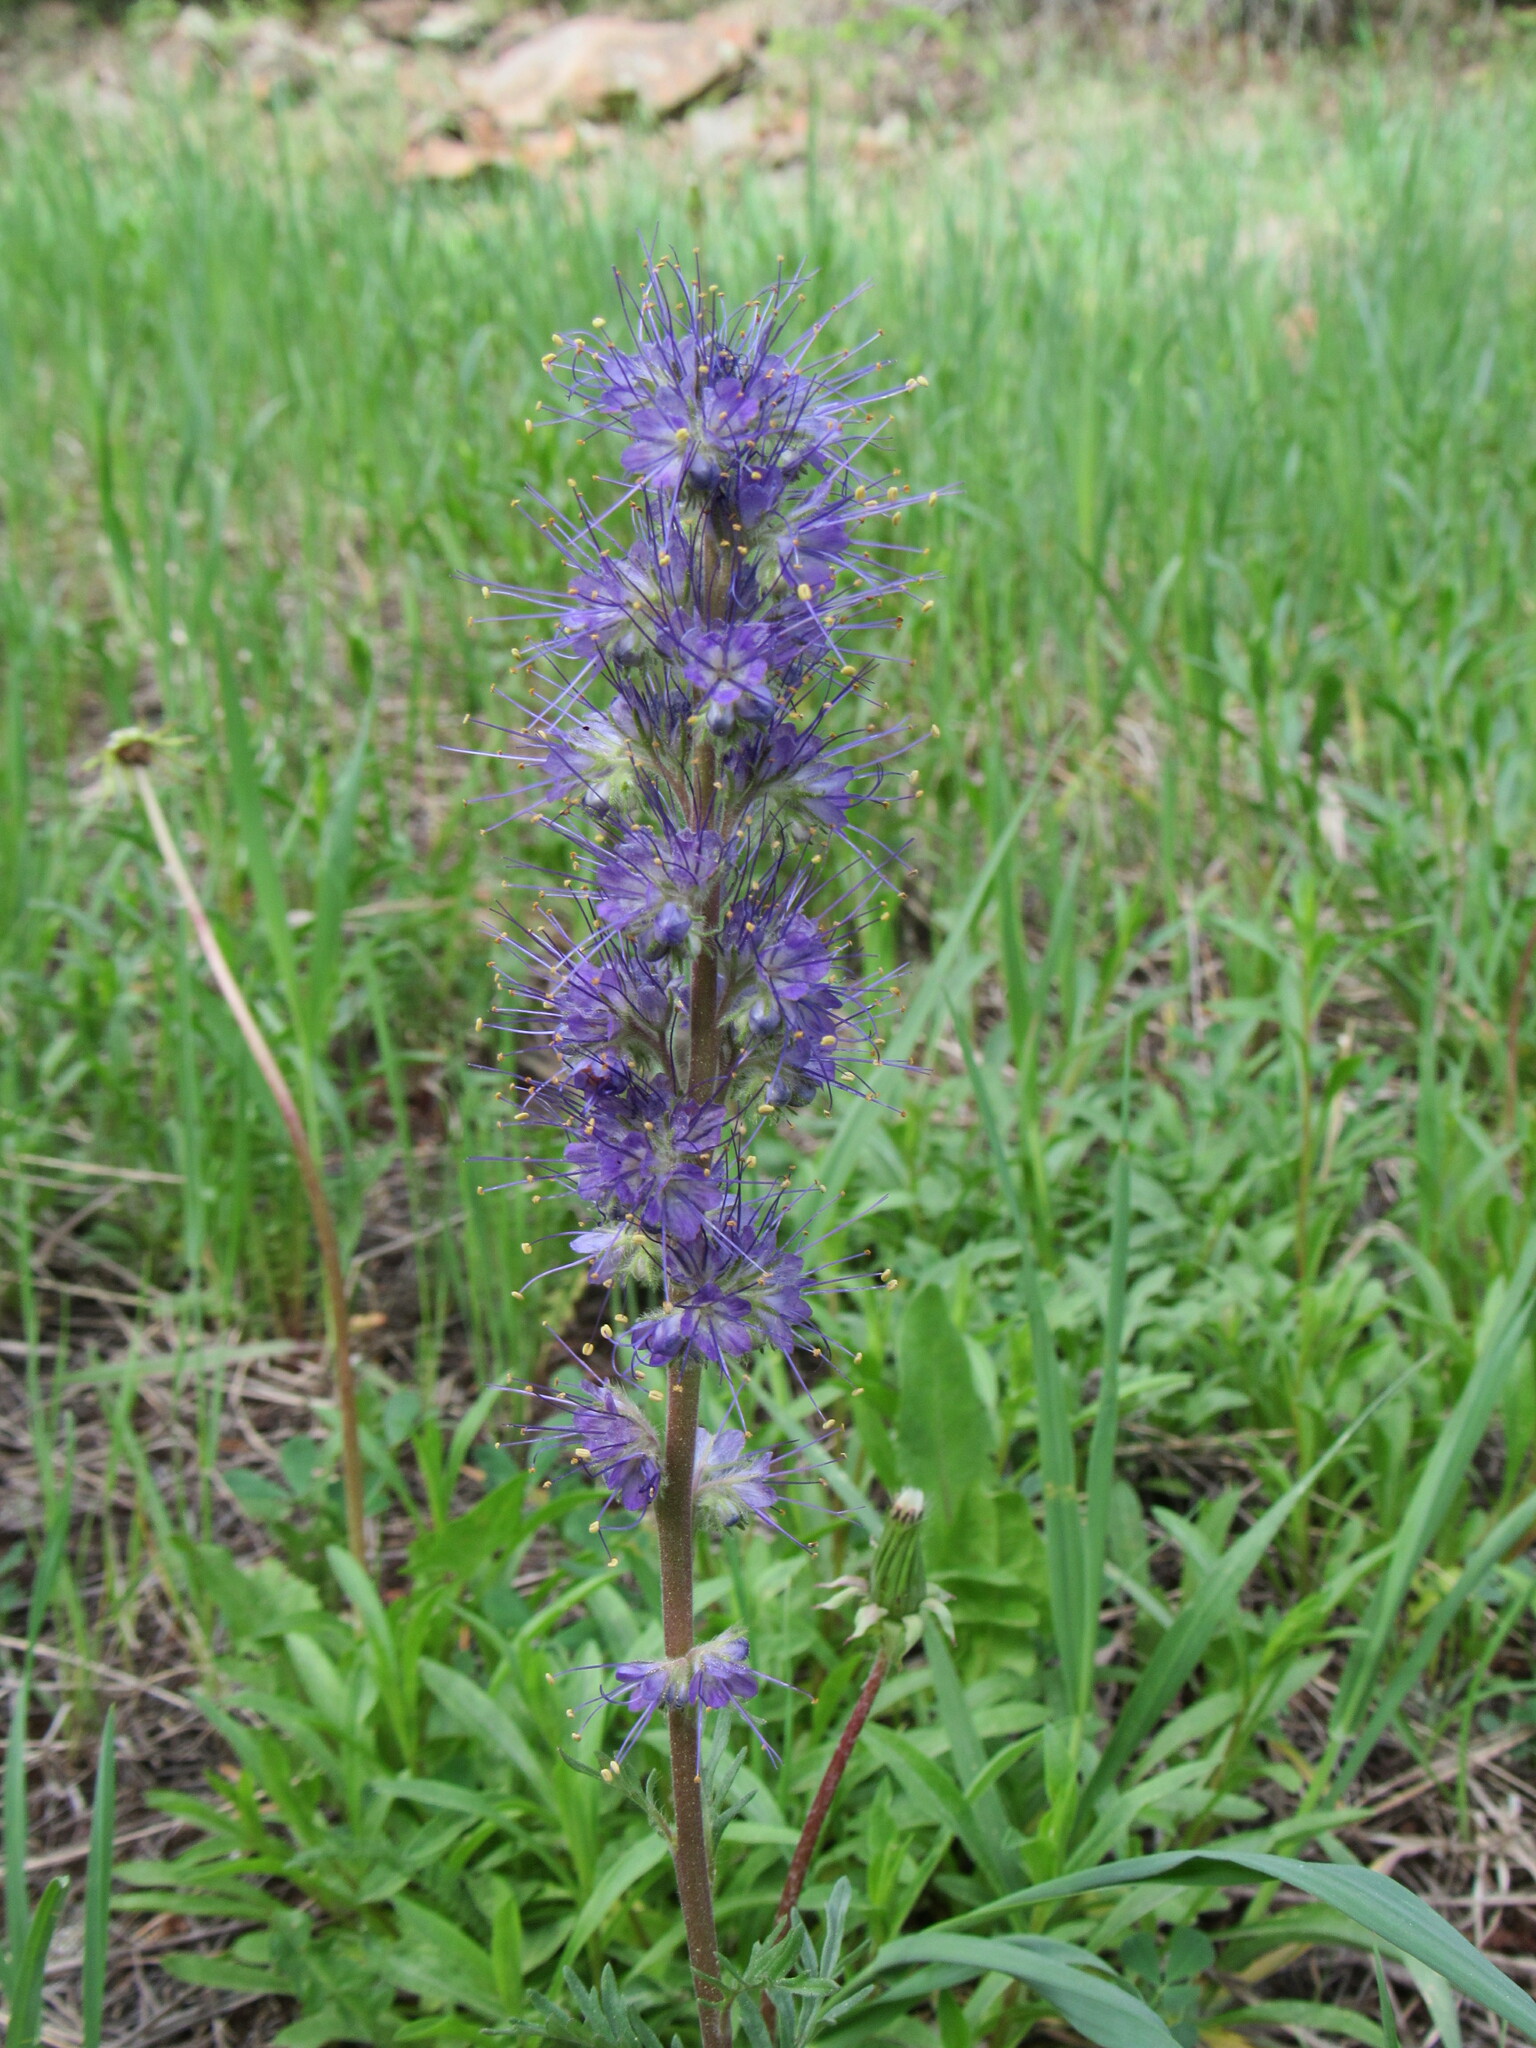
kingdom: Plantae
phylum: Tracheophyta
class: Magnoliopsida
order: Boraginales
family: Hydrophyllaceae
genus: Phacelia
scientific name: Phacelia sericea
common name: Silky phacelia
